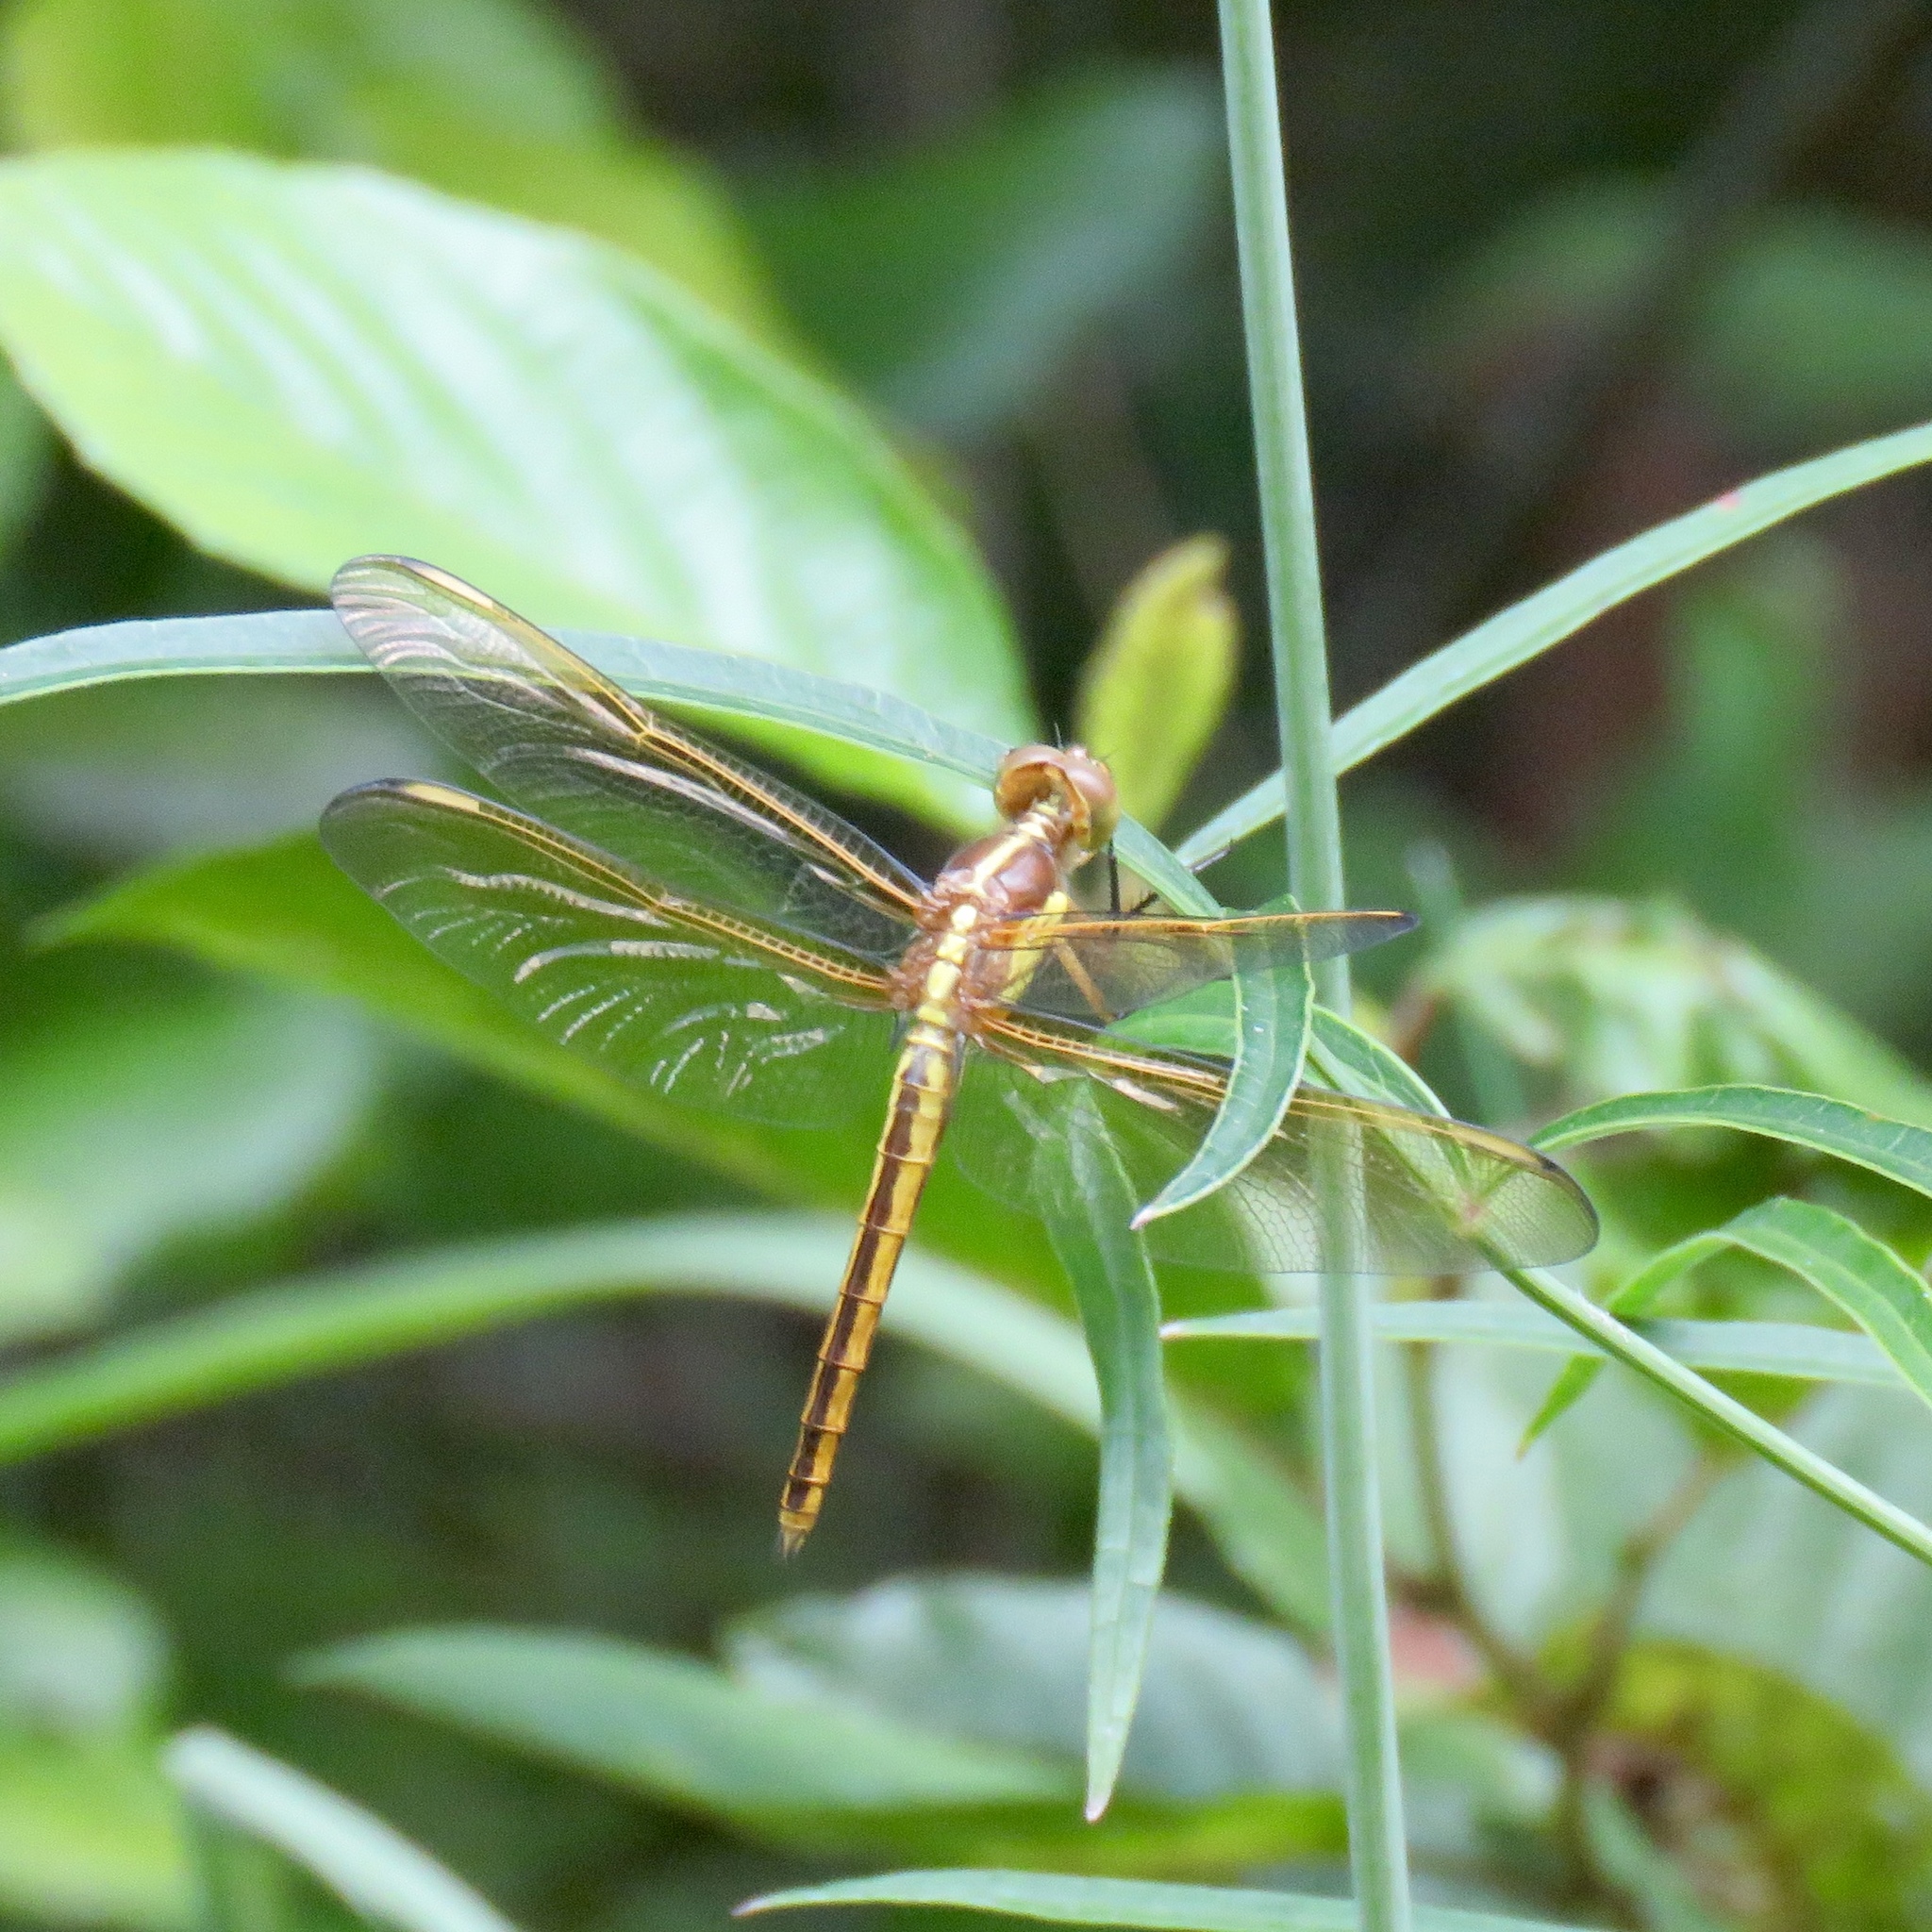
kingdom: Animalia
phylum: Arthropoda
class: Insecta
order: Odonata
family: Libellulidae
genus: Libellula
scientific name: Libellula flavida
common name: Yellow-sided skimmer
